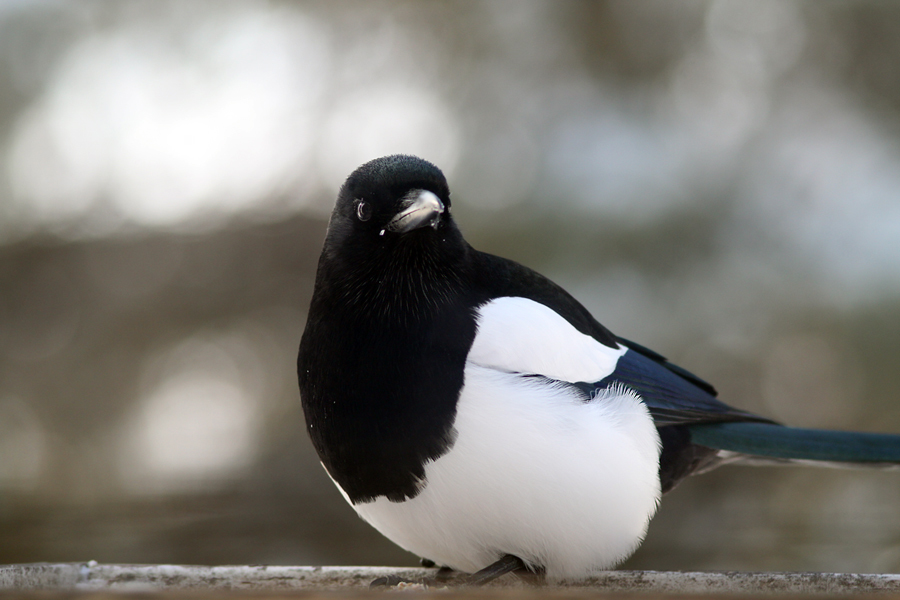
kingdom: Animalia
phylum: Chordata
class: Aves
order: Passeriformes
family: Corvidae
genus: Pica
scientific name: Pica hudsonia
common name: Black-billed magpie
